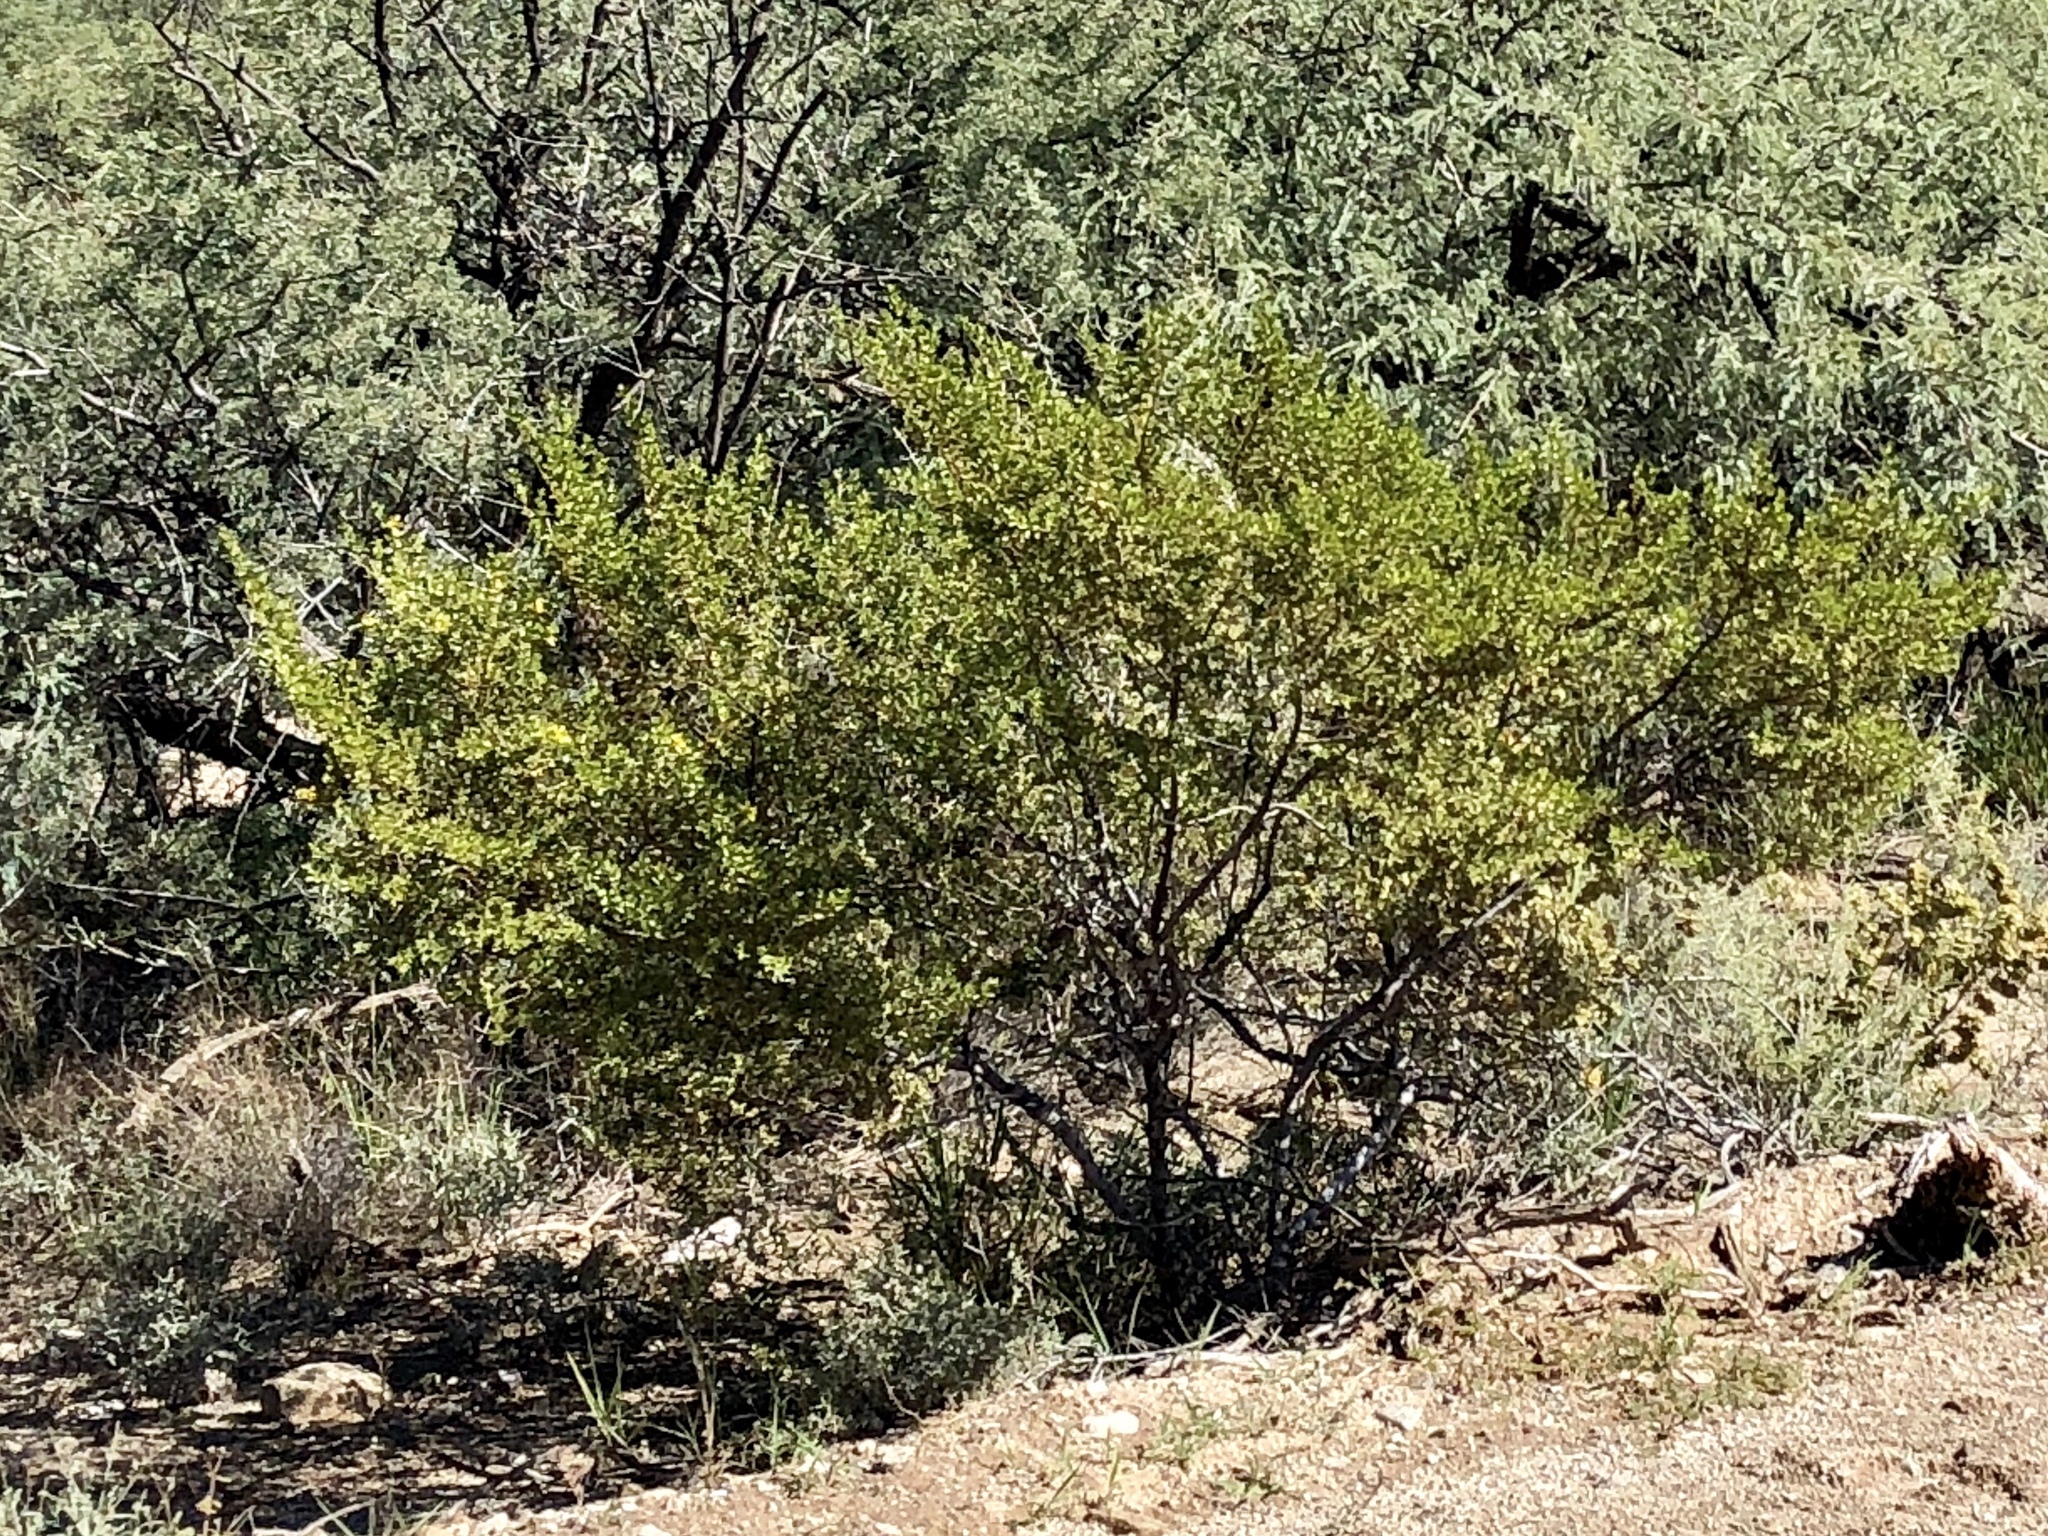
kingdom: Plantae
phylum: Tracheophyta
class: Magnoliopsida
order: Zygophyllales
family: Zygophyllaceae
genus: Larrea
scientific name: Larrea tridentata
